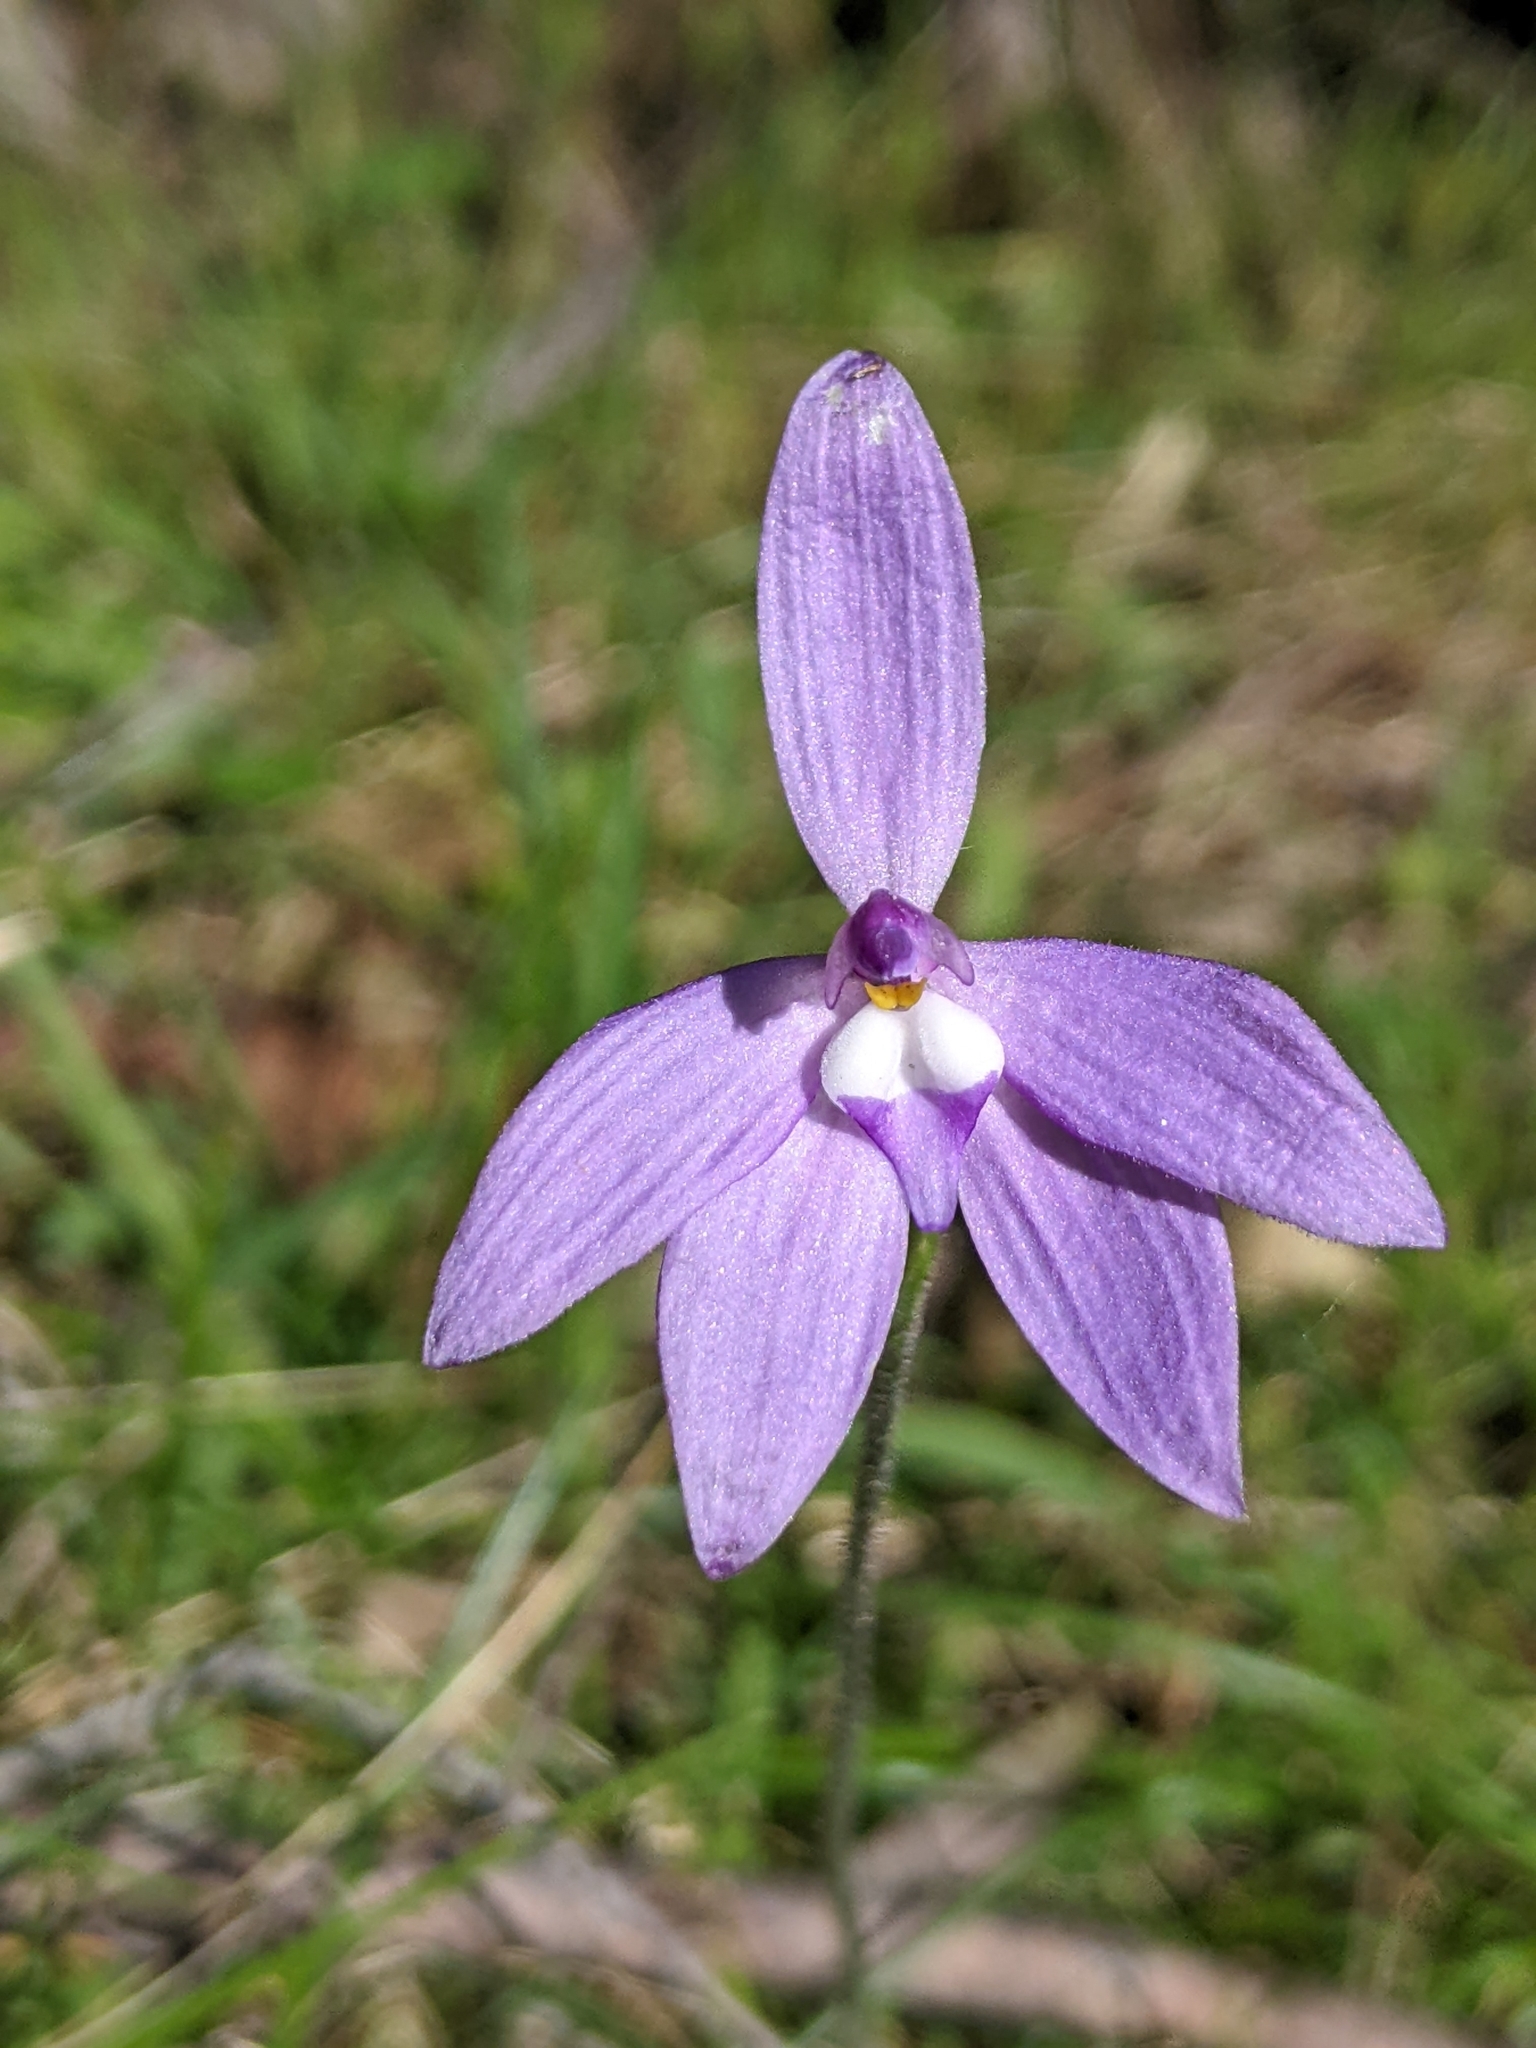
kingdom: Plantae
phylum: Tracheophyta
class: Liliopsida
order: Asparagales
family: Orchidaceae
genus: Caladenia
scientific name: Caladenia major
